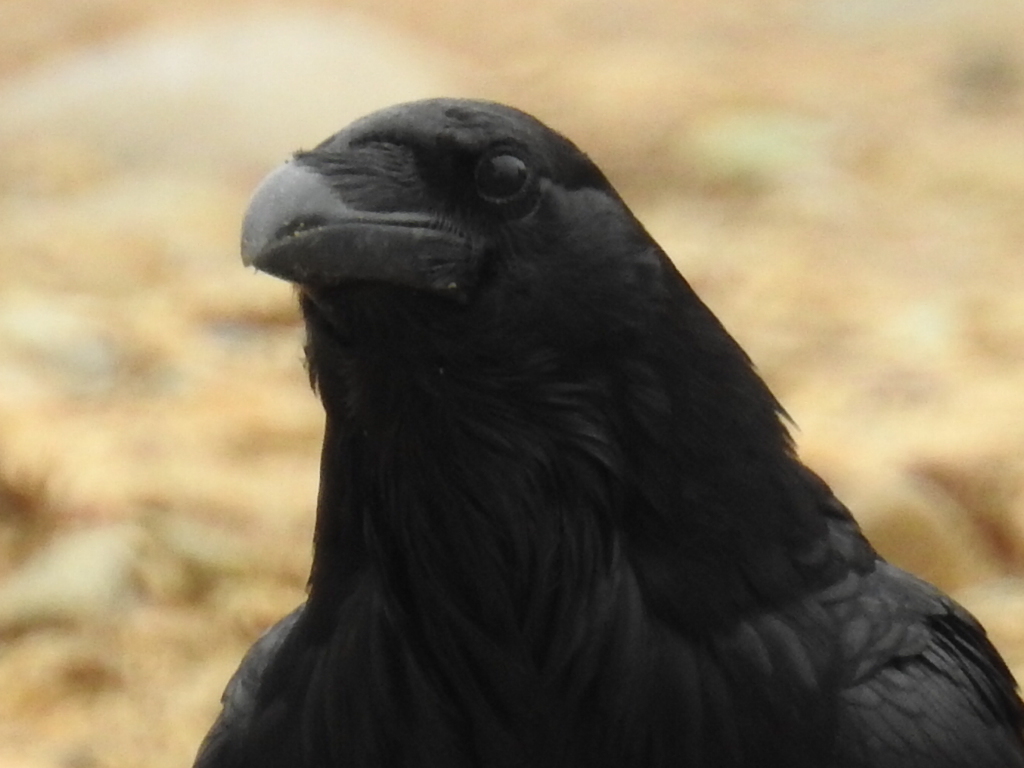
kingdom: Animalia
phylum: Chordata
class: Aves
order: Passeriformes
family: Corvidae
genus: Corvus
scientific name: Corvus corax
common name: Common raven
